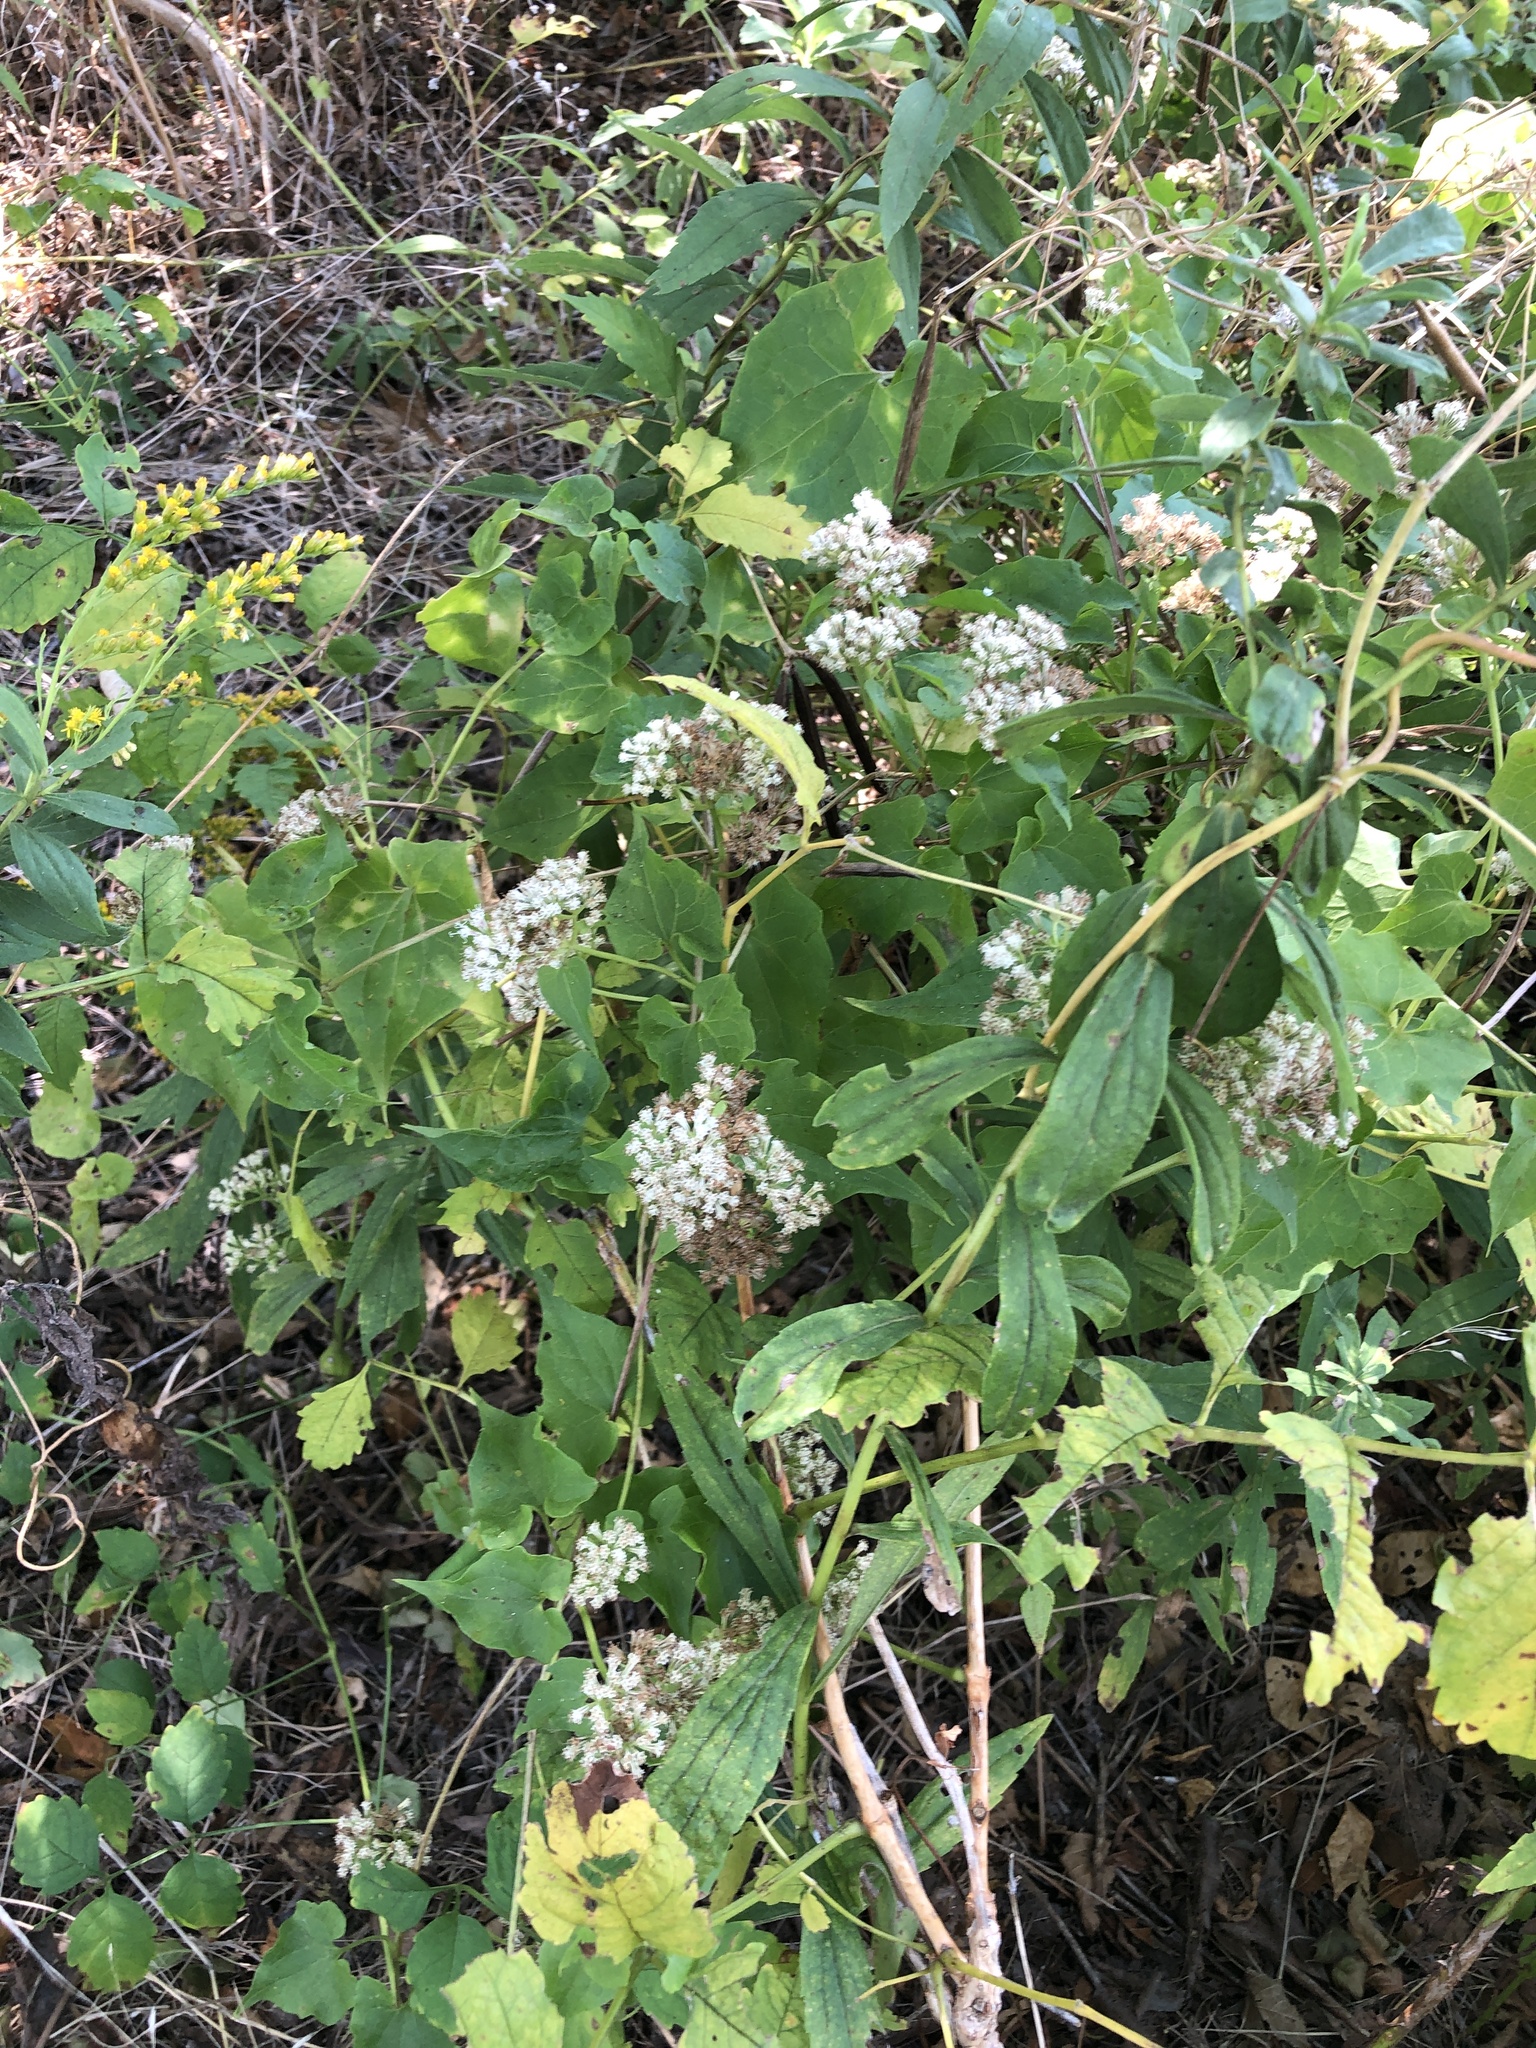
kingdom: Plantae
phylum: Tracheophyta
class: Magnoliopsida
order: Asterales
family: Asteraceae
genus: Mikania
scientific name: Mikania scandens
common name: Climbing hempvine
